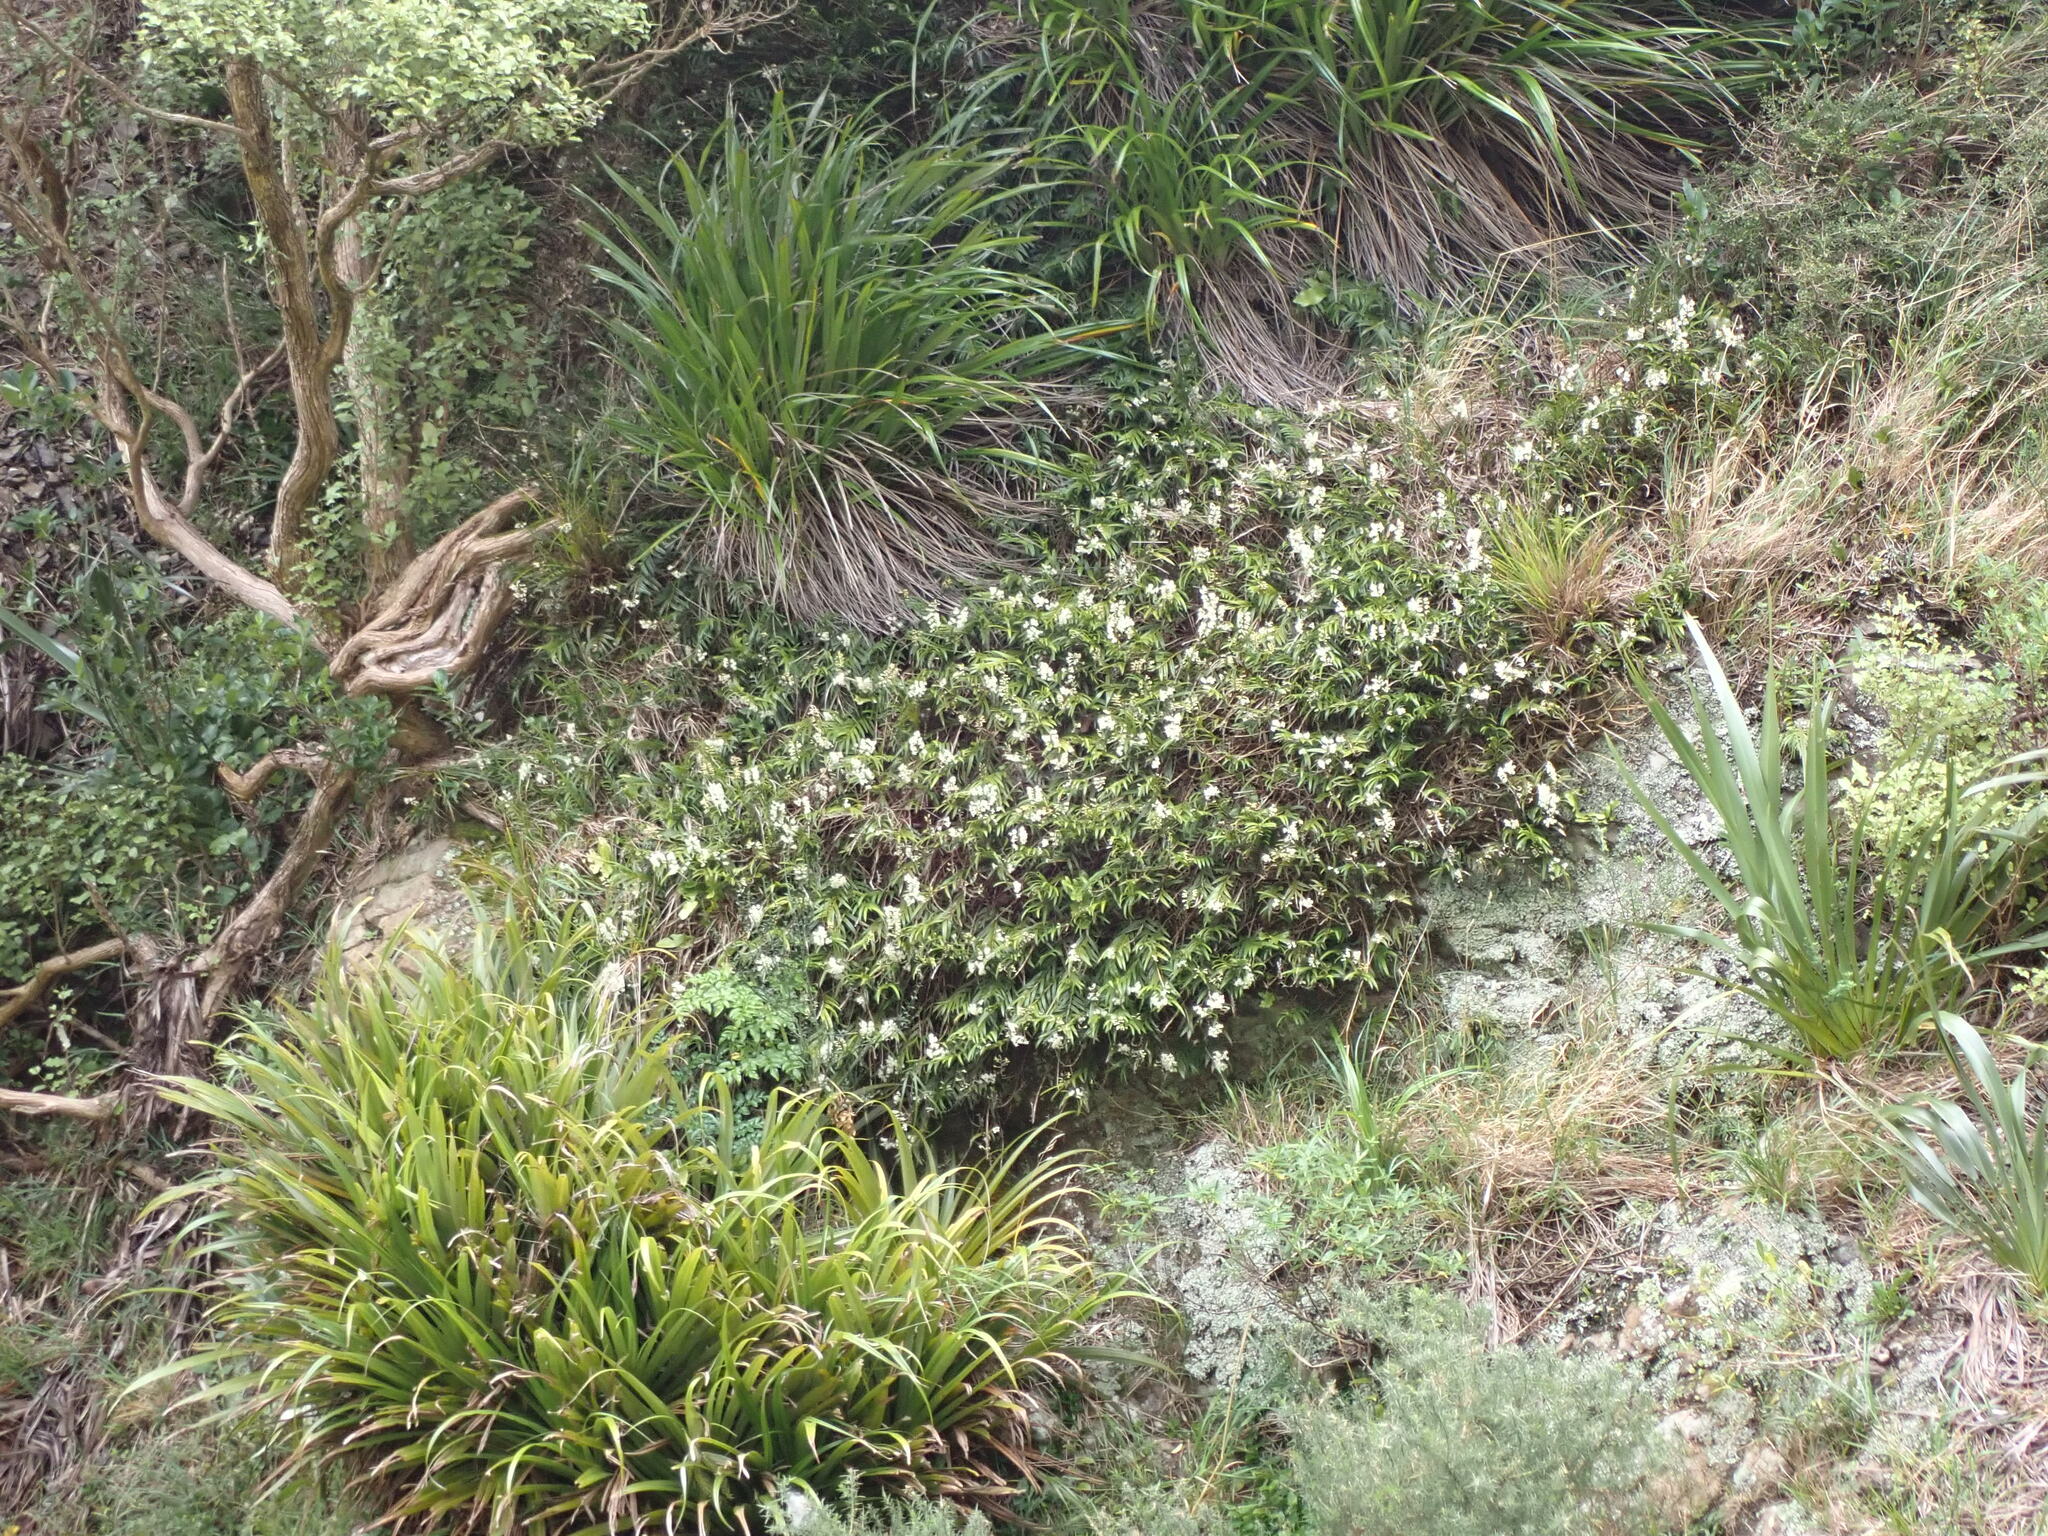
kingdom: Plantae
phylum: Tracheophyta
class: Liliopsida
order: Asparagales
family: Orchidaceae
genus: Earina
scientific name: Earina autumnalis
